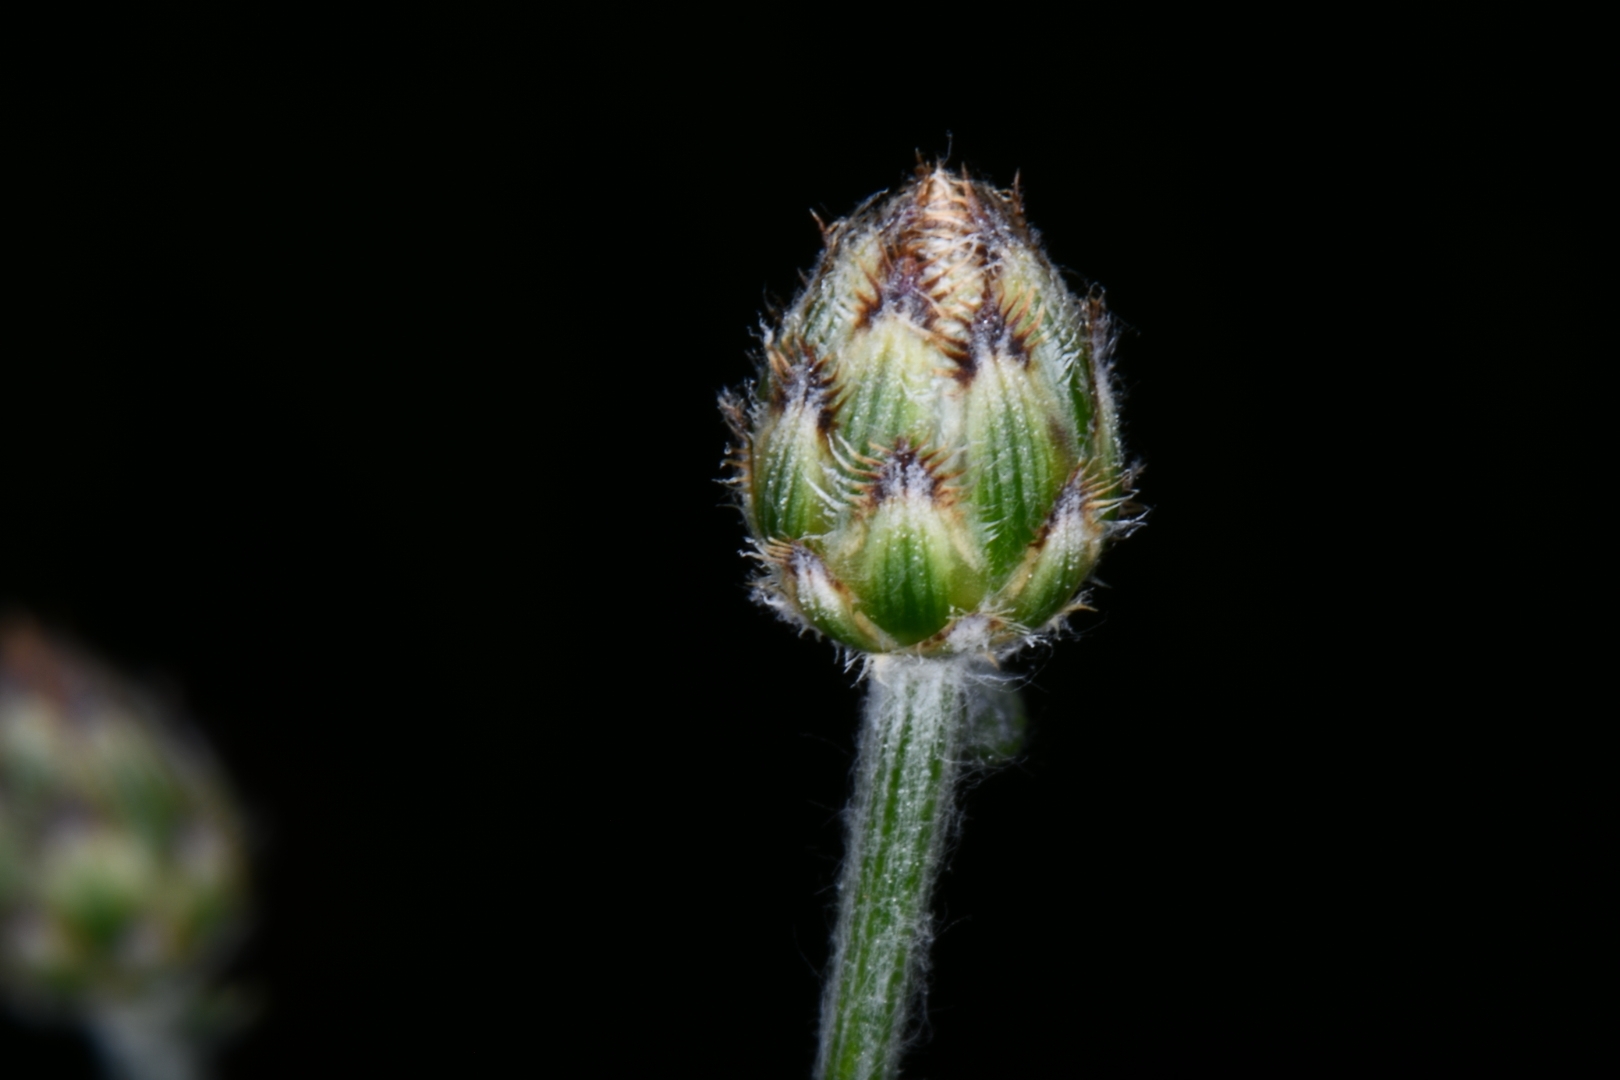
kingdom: Plantae
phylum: Tracheophyta
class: Magnoliopsida
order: Asterales
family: Asteraceae
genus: Centaurea
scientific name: Centaurea stoebe
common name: Spotted knapweed
